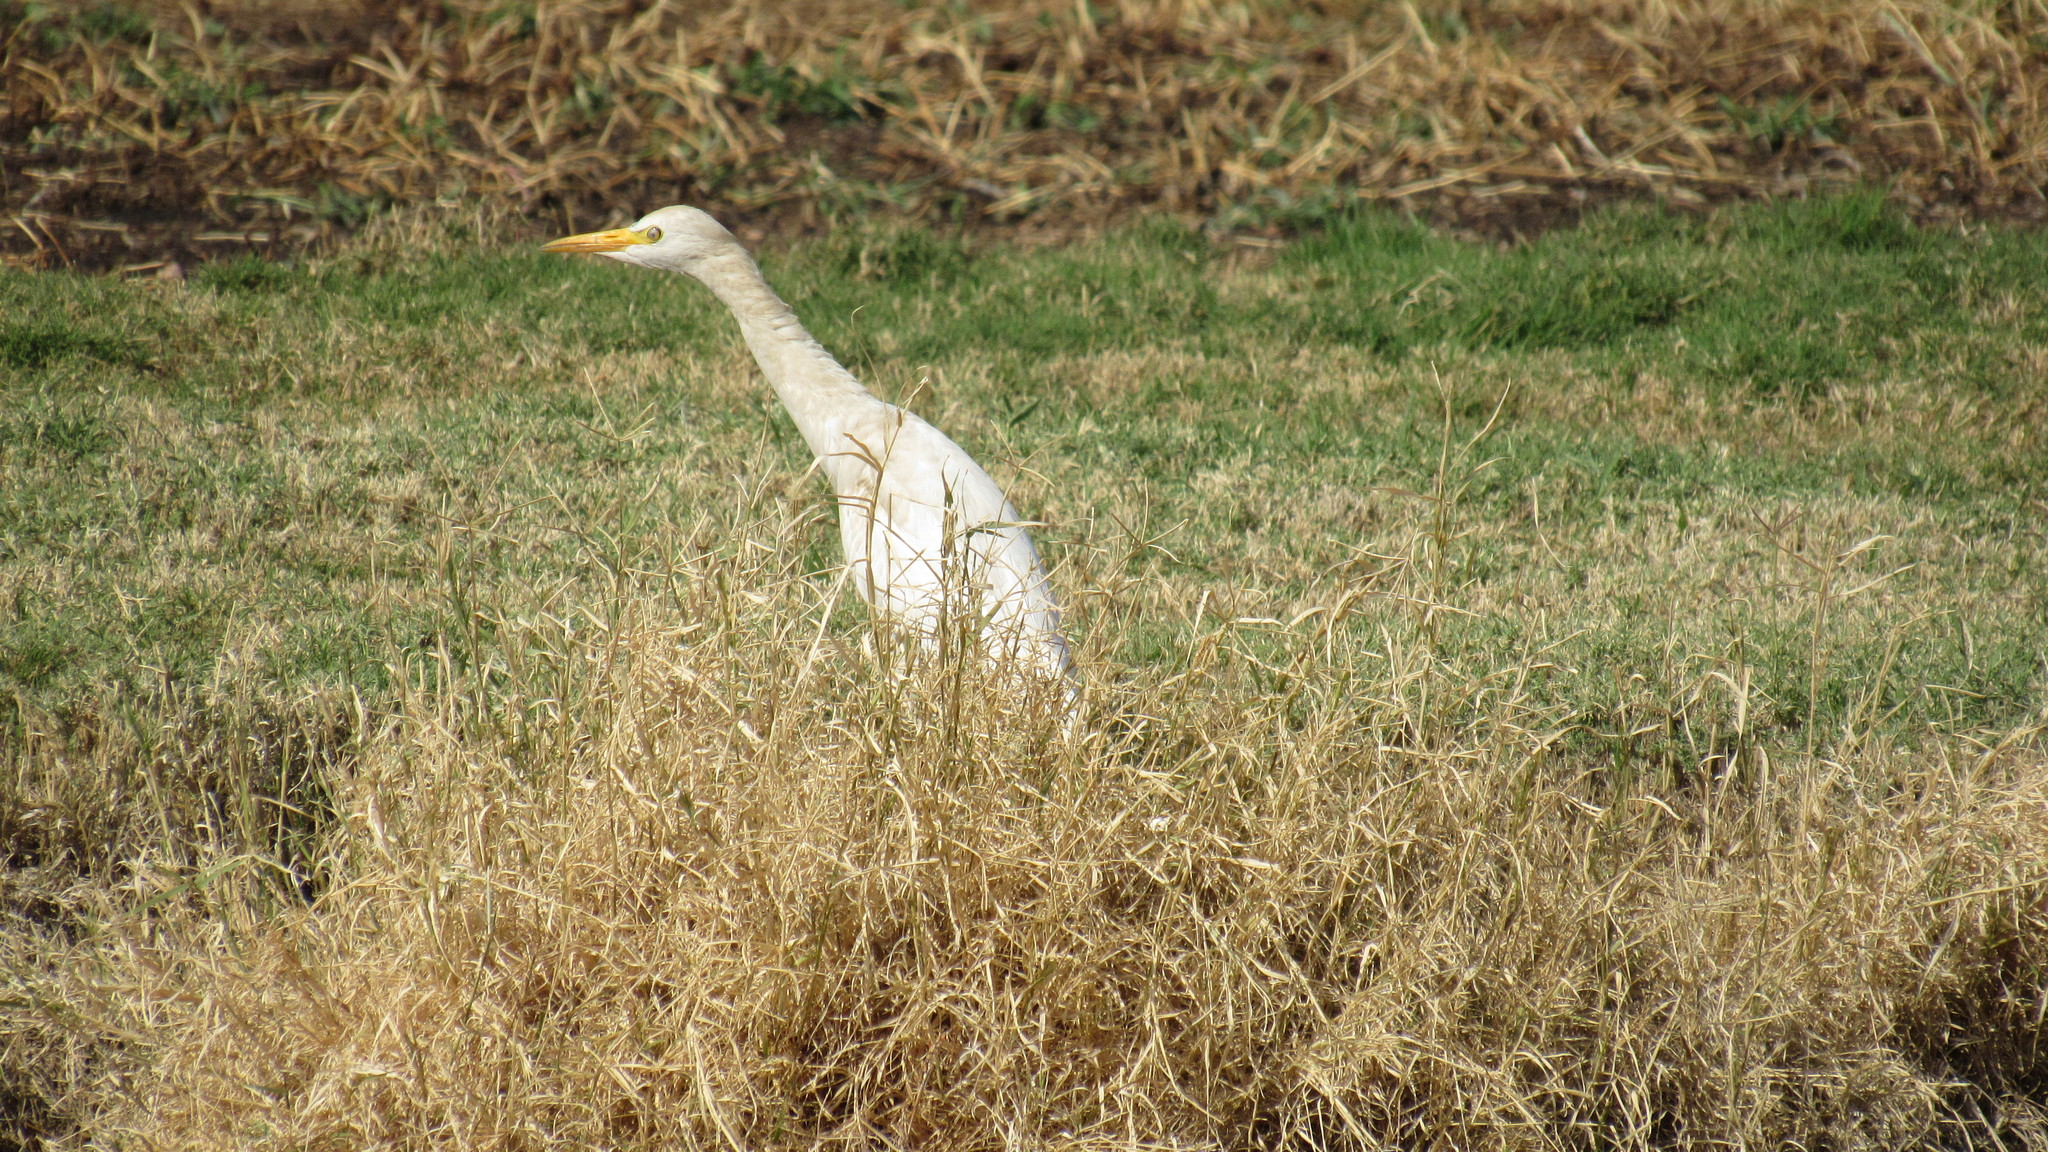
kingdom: Animalia
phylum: Chordata
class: Aves
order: Pelecaniformes
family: Ardeidae
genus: Bubulcus
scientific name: Bubulcus ibis
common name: Cattle egret
